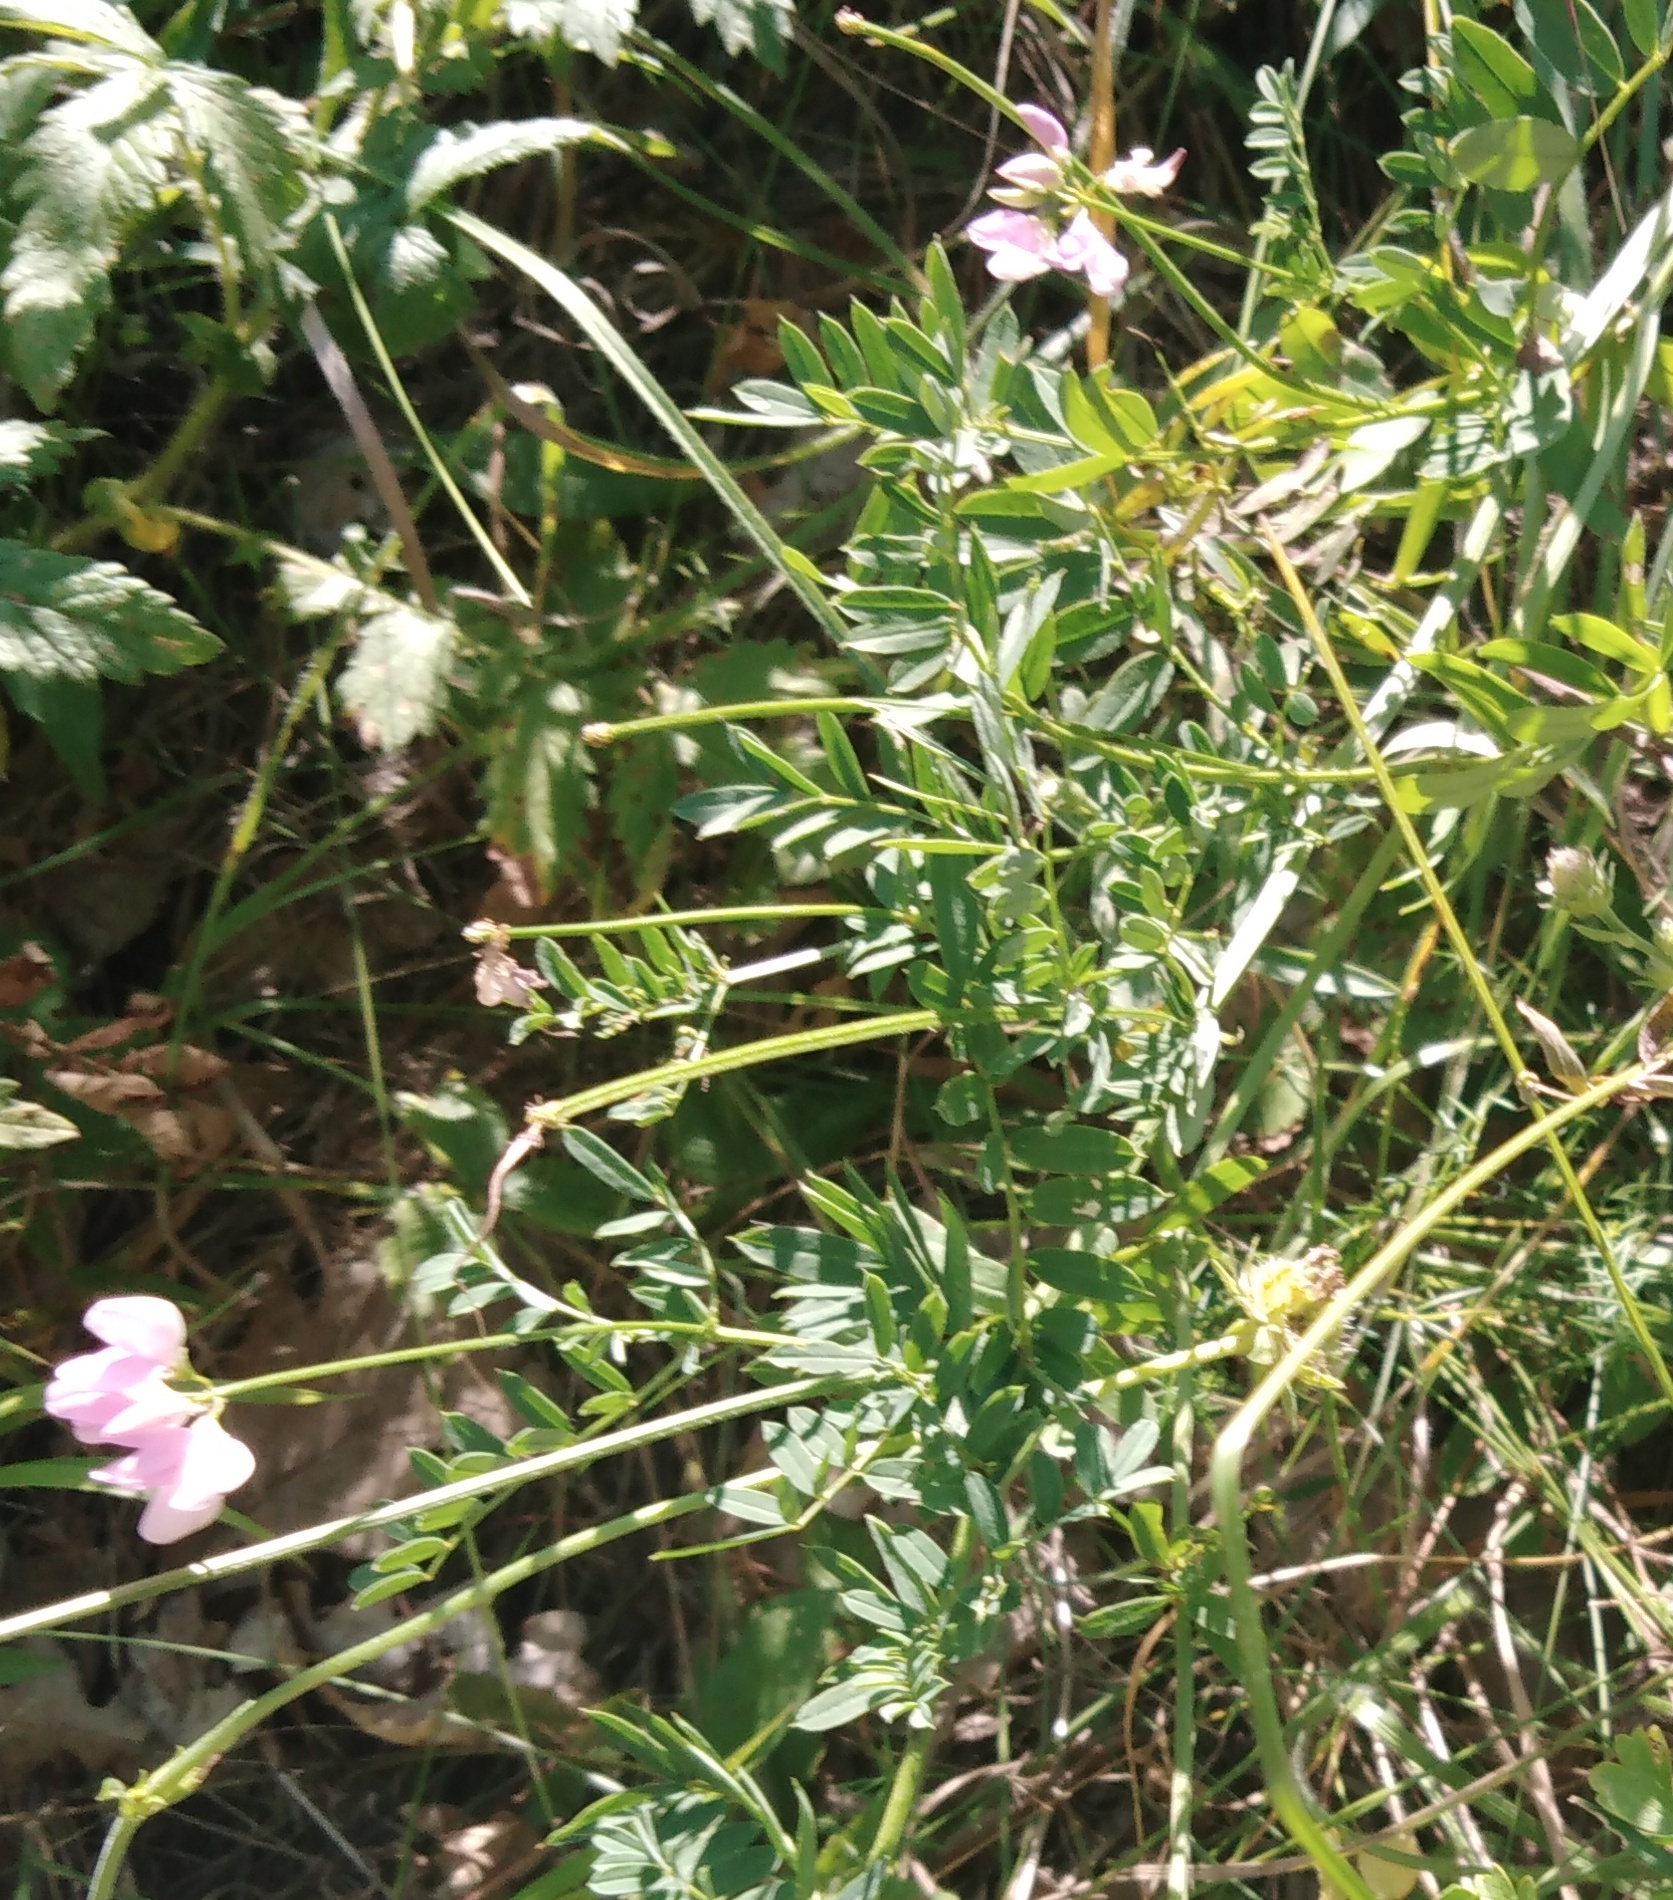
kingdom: Plantae
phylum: Tracheophyta
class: Magnoliopsida
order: Fabales
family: Fabaceae
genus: Coronilla
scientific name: Coronilla varia
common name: Crownvetch
